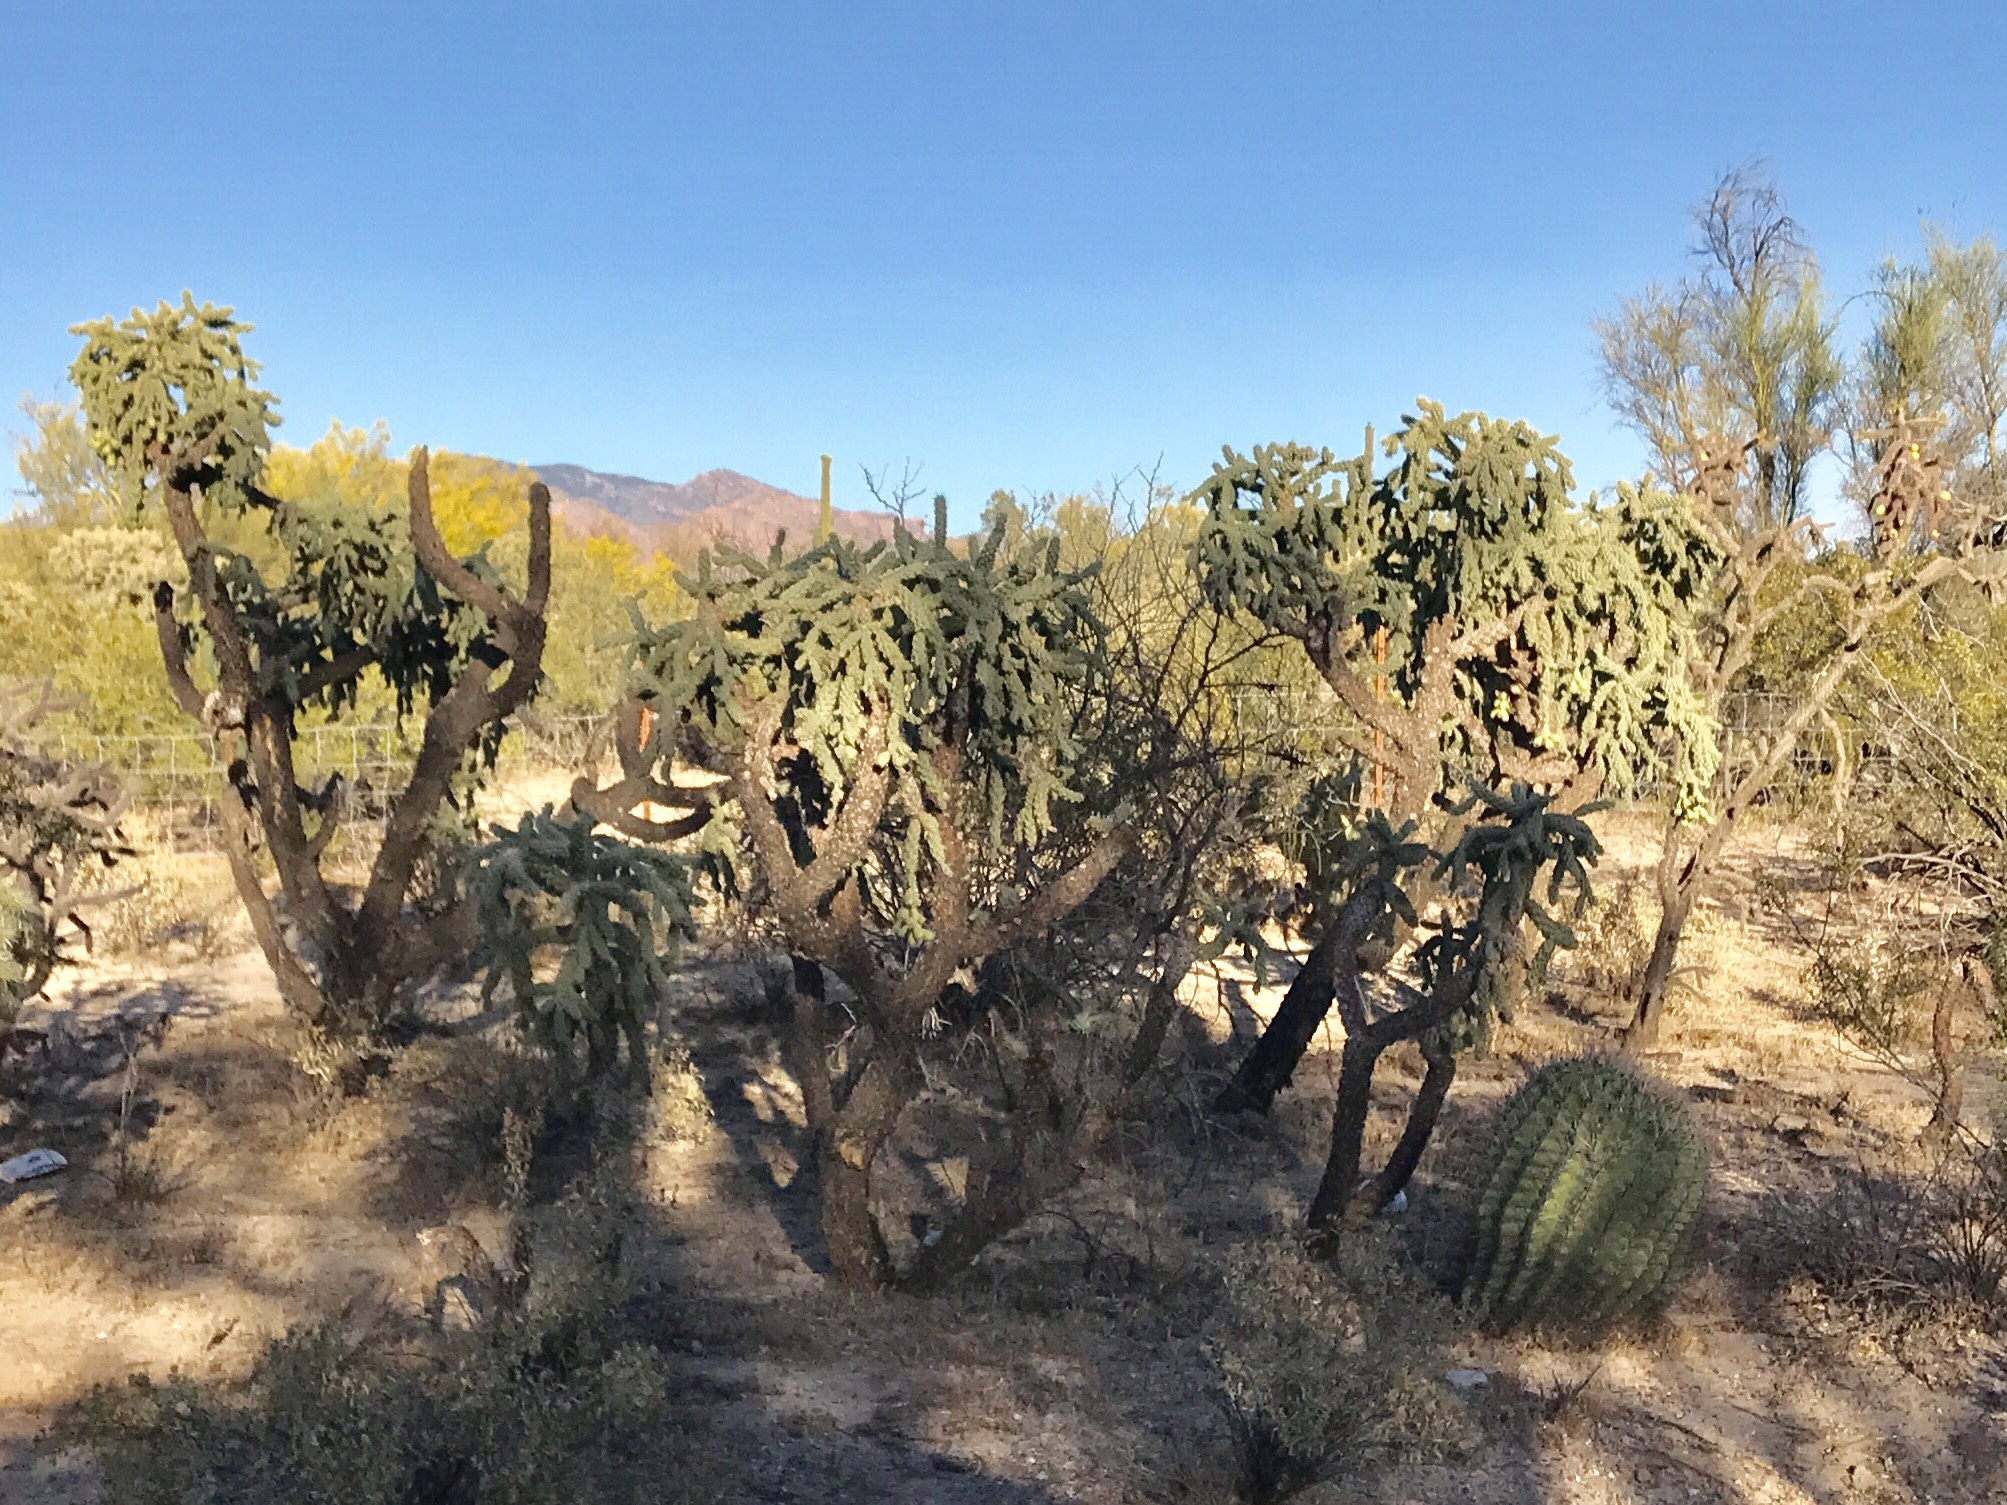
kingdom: Plantae
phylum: Tracheophyta
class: Magnoliopsida
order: Caryophyllales
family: Cactaceae
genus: Cylindropuntia
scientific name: Cylindropuntia fulgida
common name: Jumping cholla
